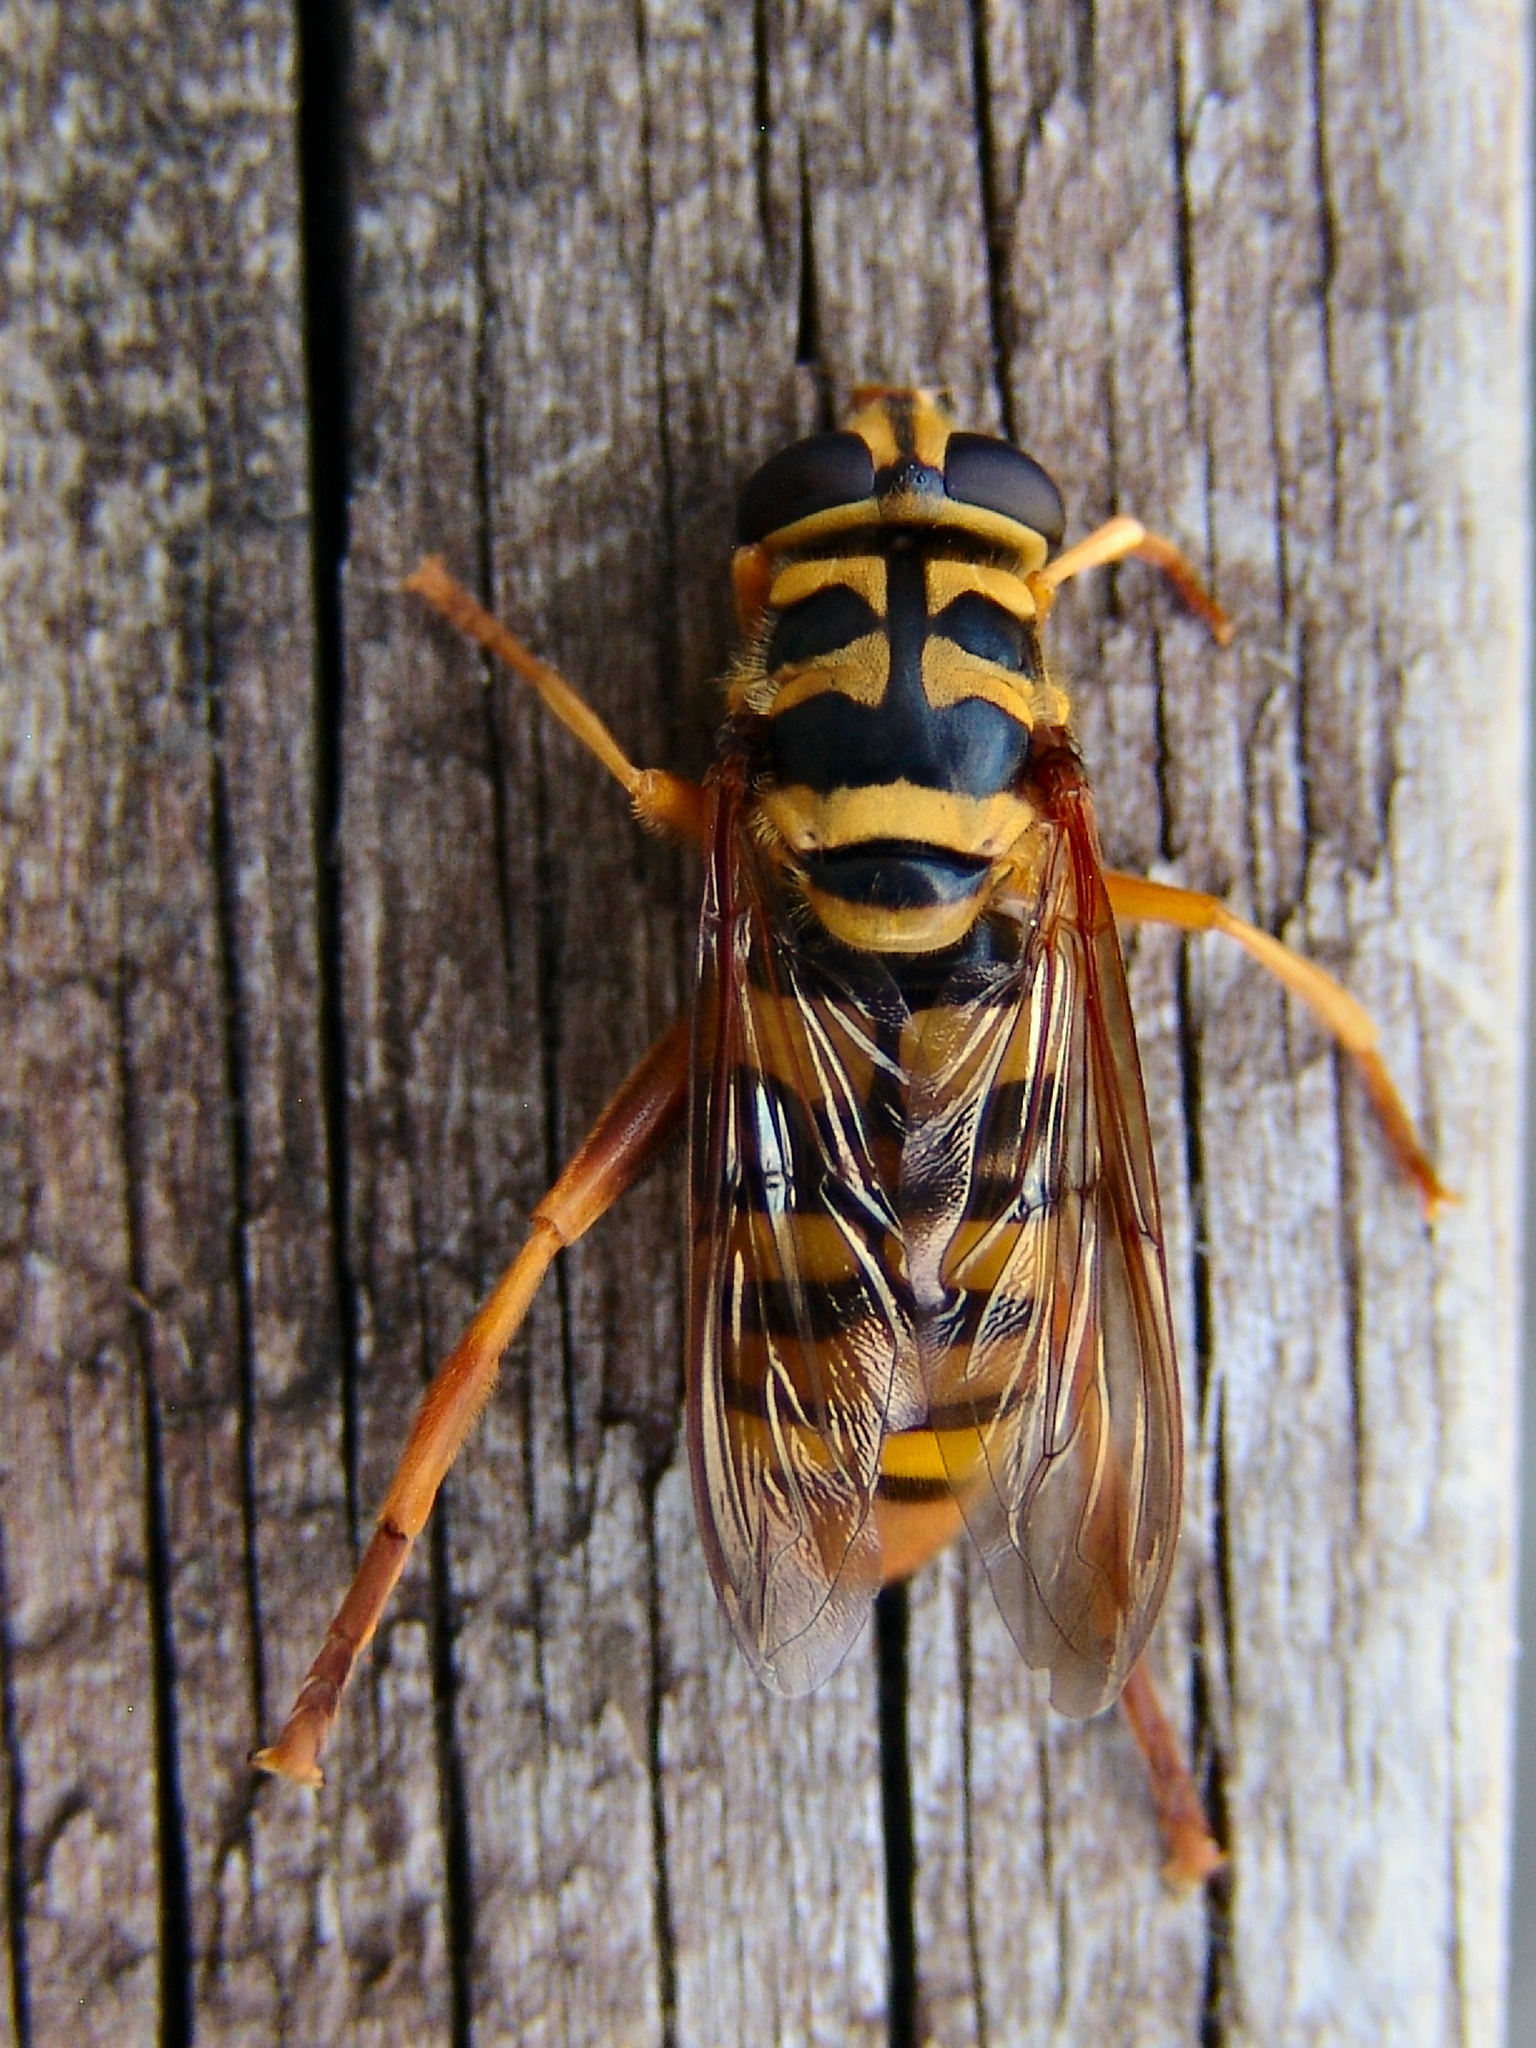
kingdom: Animalia
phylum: Arthropoda
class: Insecta
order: Diptera
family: Syrphidae
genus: Milesia
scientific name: Milesia virginiensis
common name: Virginia giant
